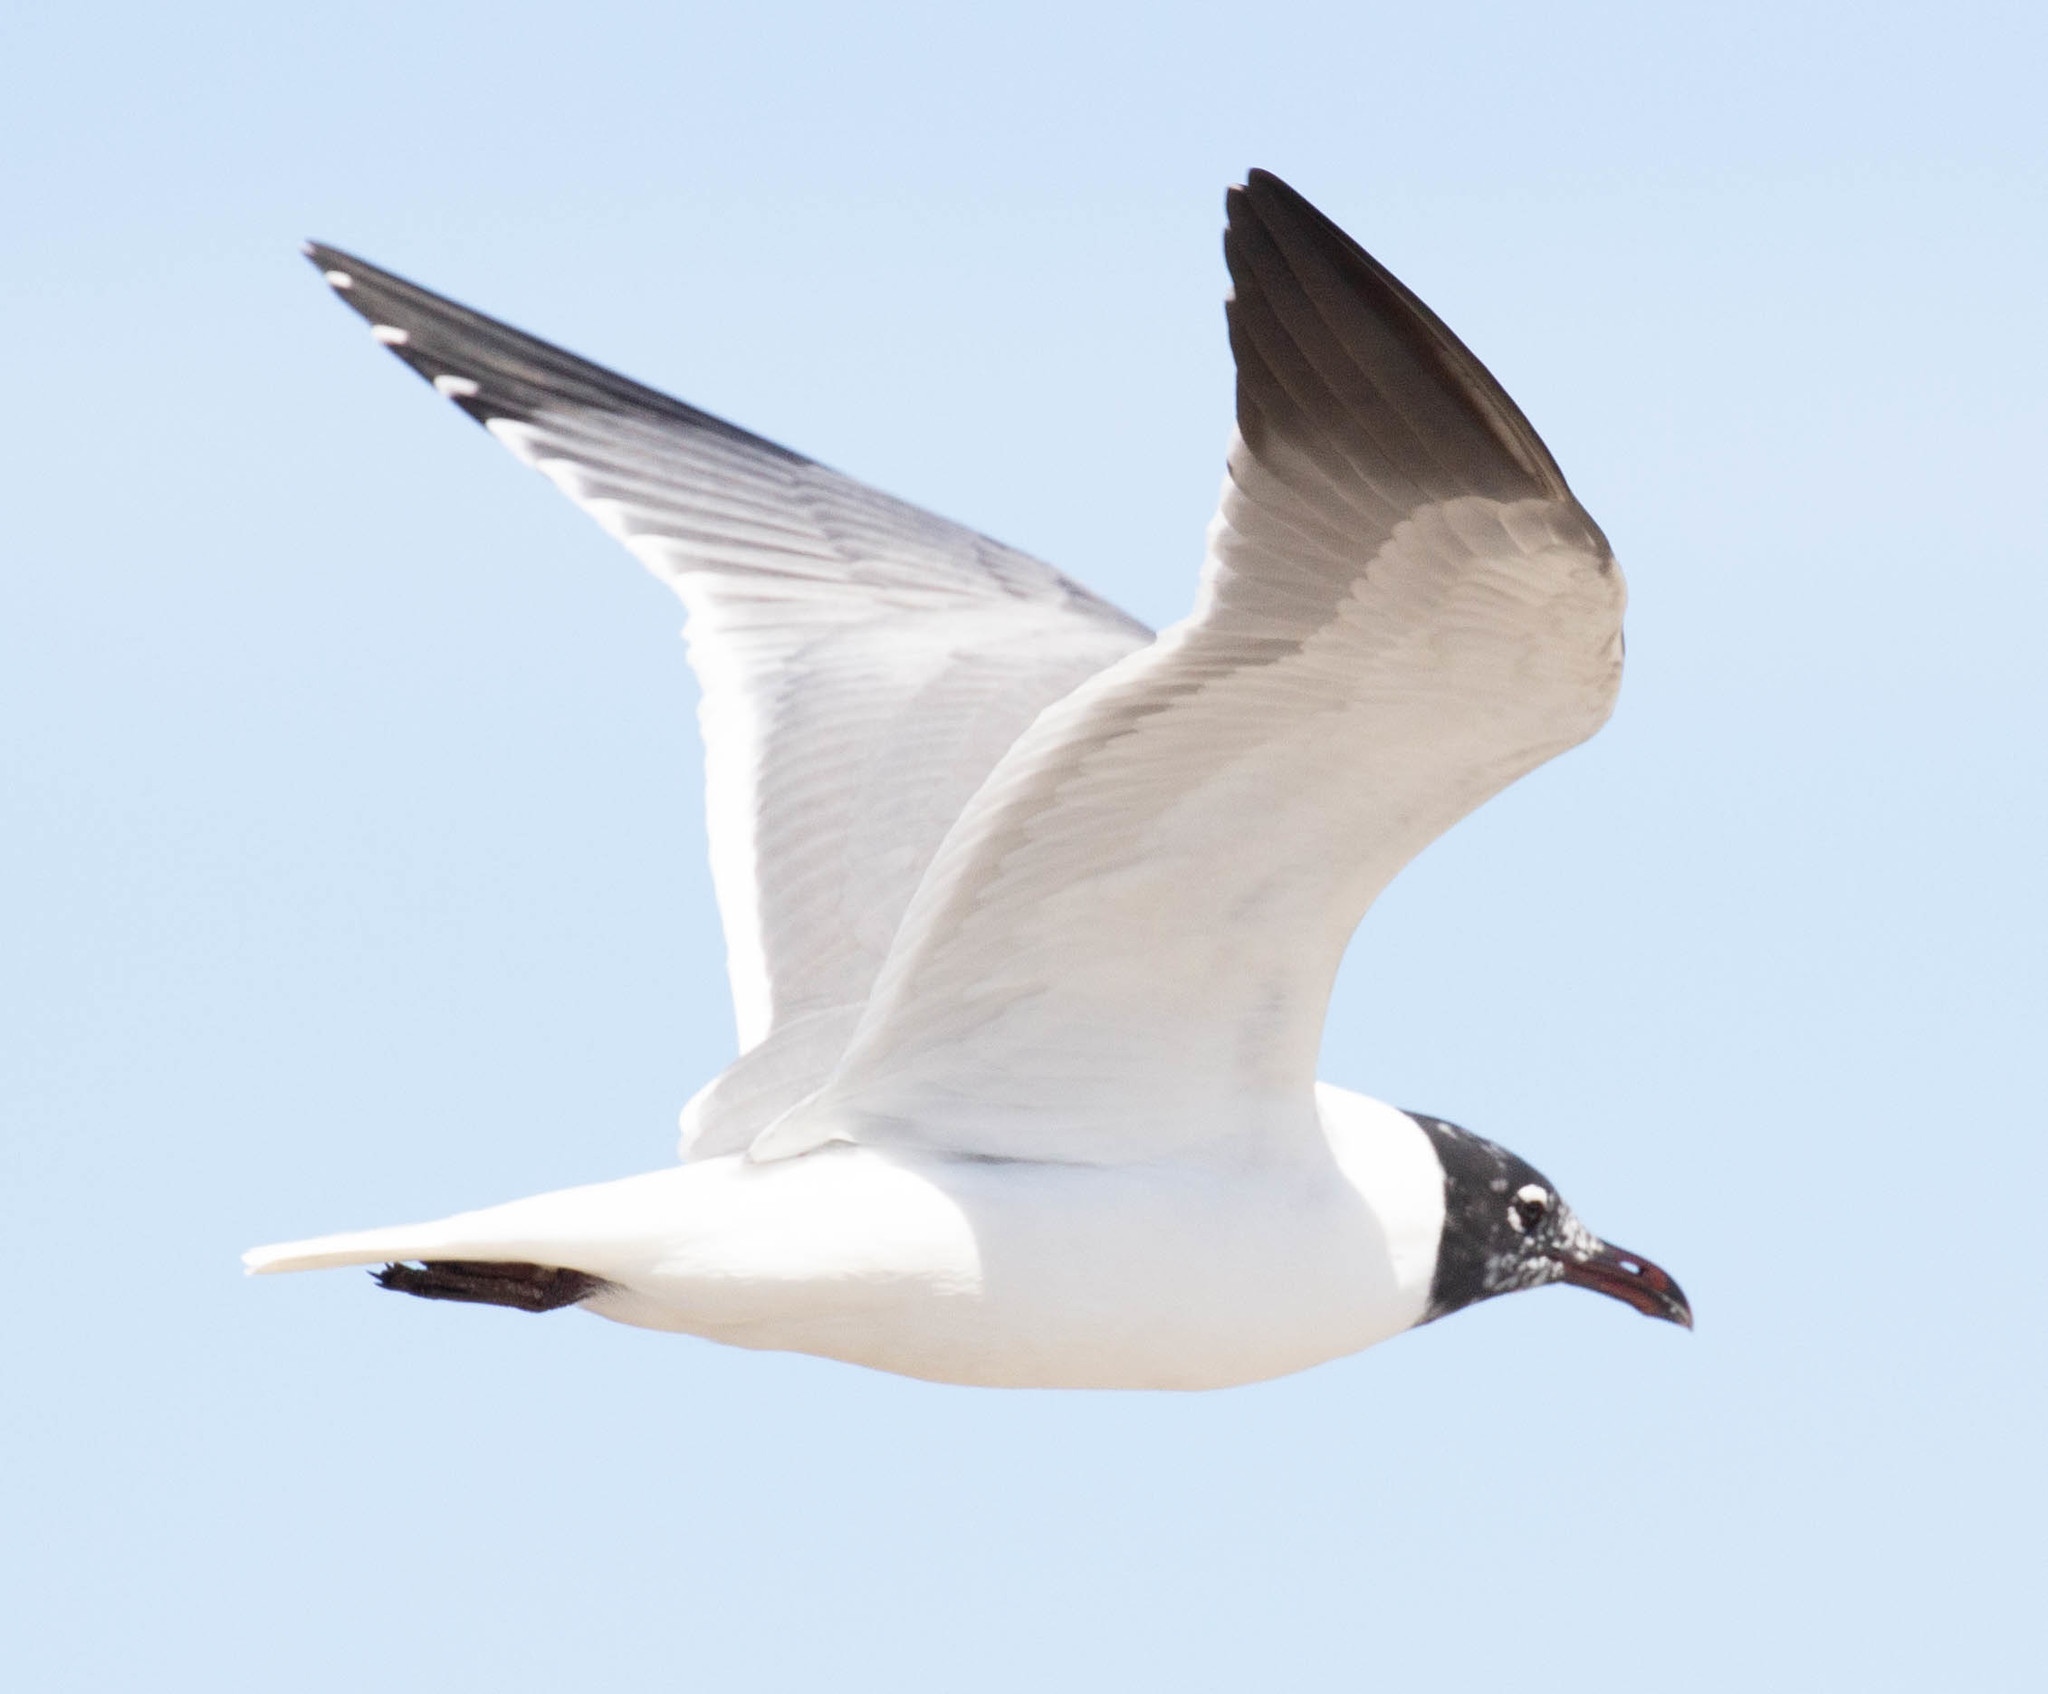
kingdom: Animalia
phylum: Chordata
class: Aves
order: Charadriiformes
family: Laridae
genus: Leucophaeus
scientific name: Leucophaeus atricilla
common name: Laughing gull
